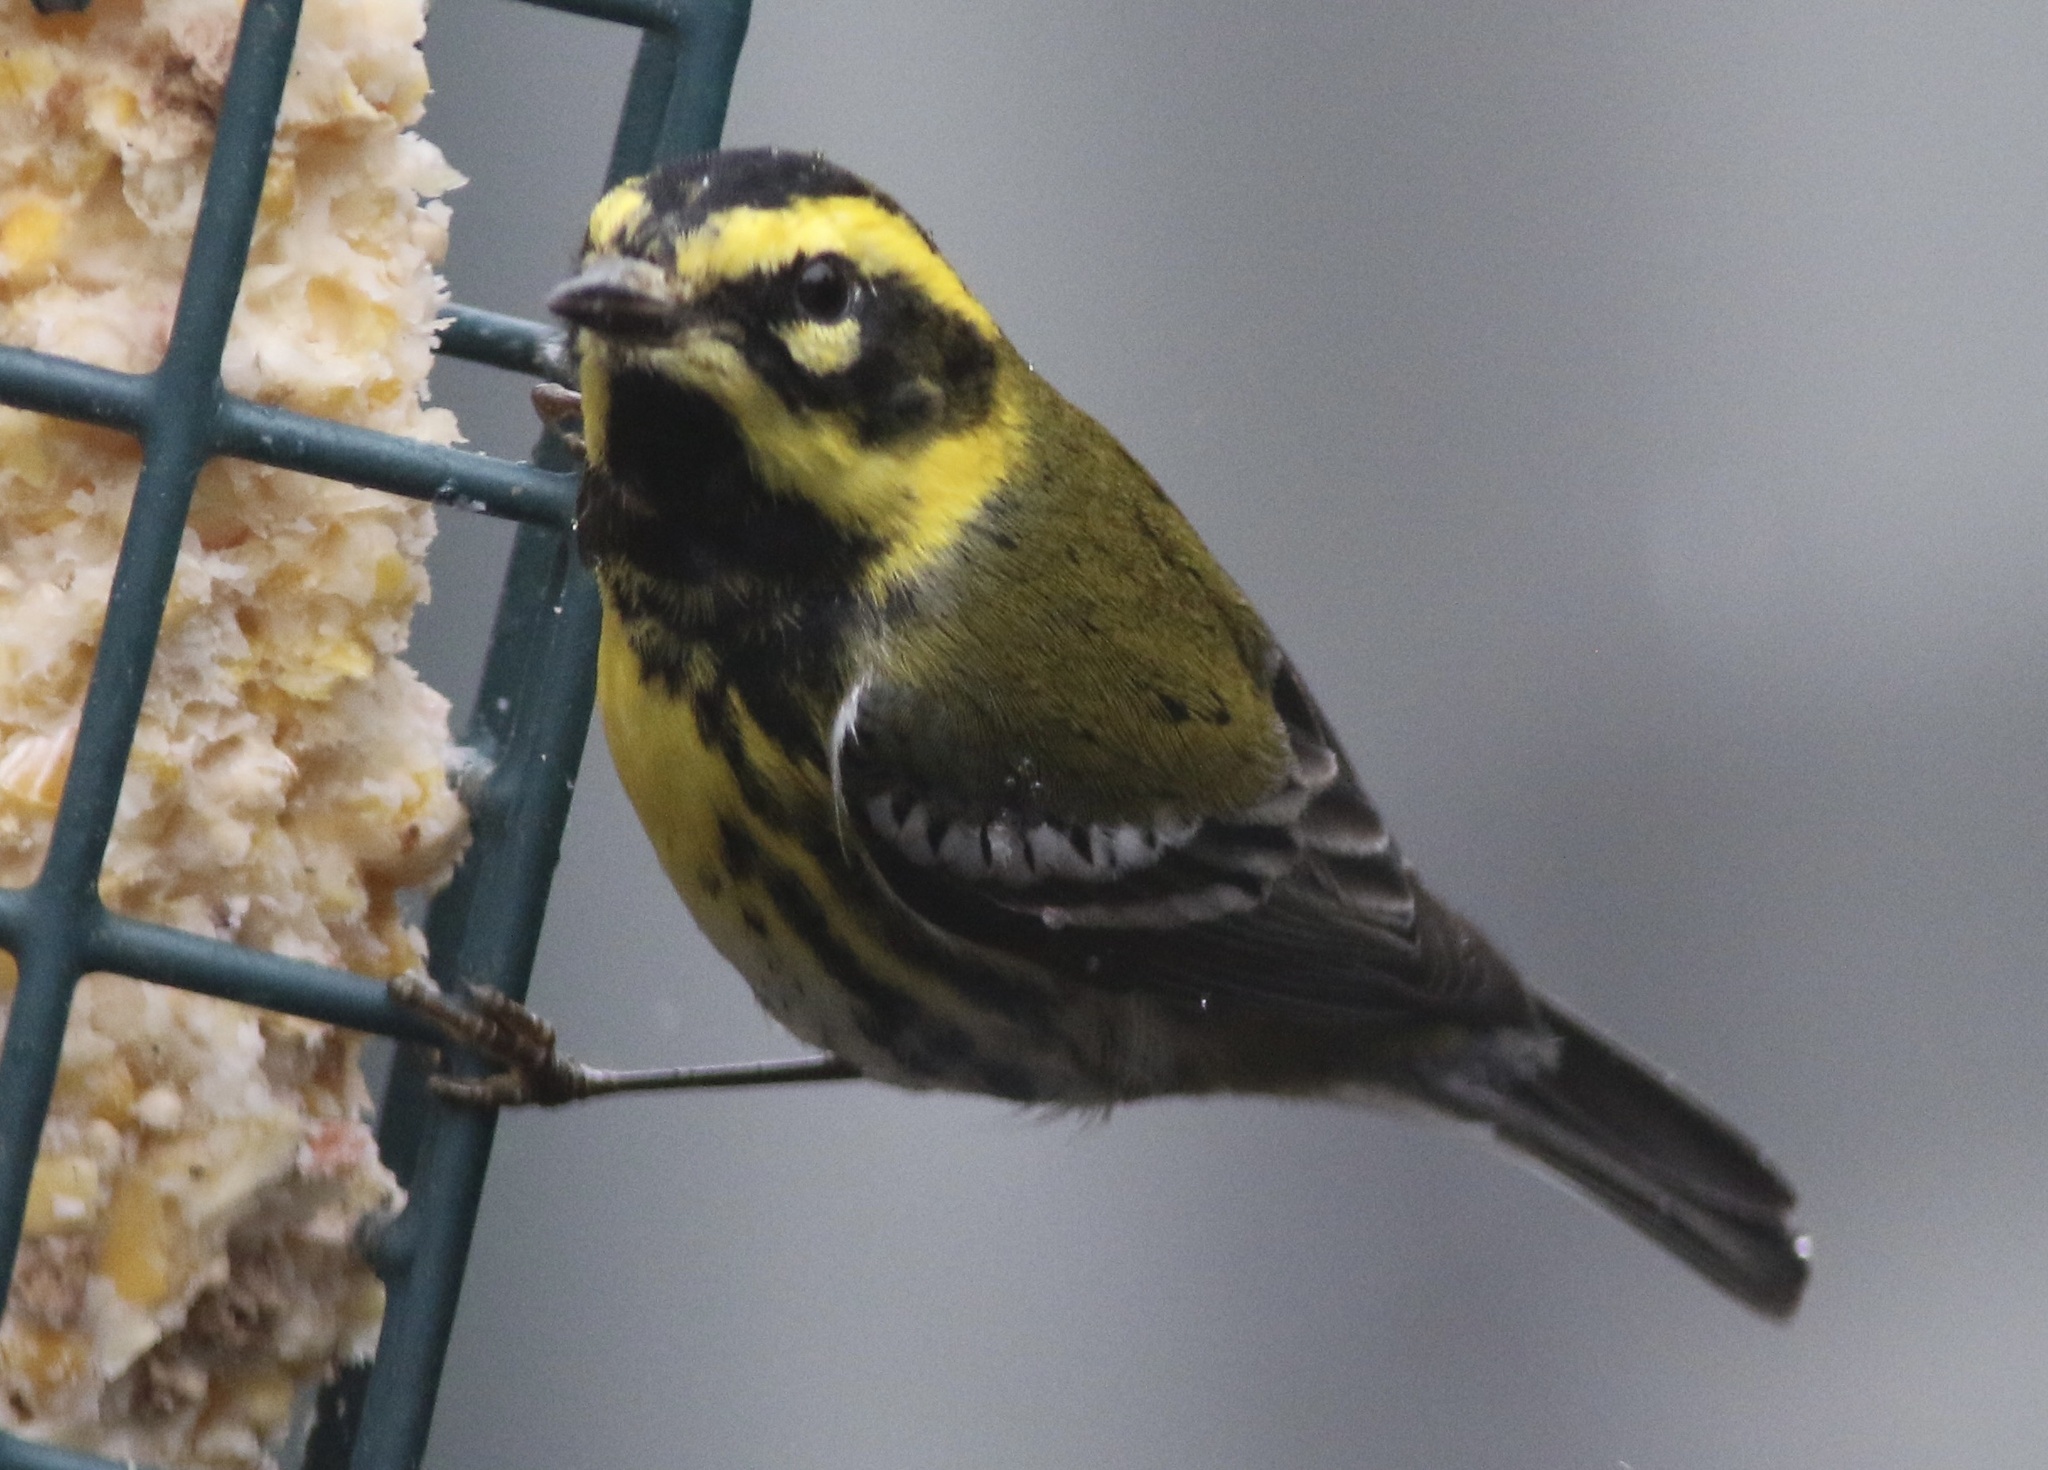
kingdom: Animalia
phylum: Chordata
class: Aves
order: Passeriformes
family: Parulidae
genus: Setophaga
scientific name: Setophaga townsendi
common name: Townsend's warbler
